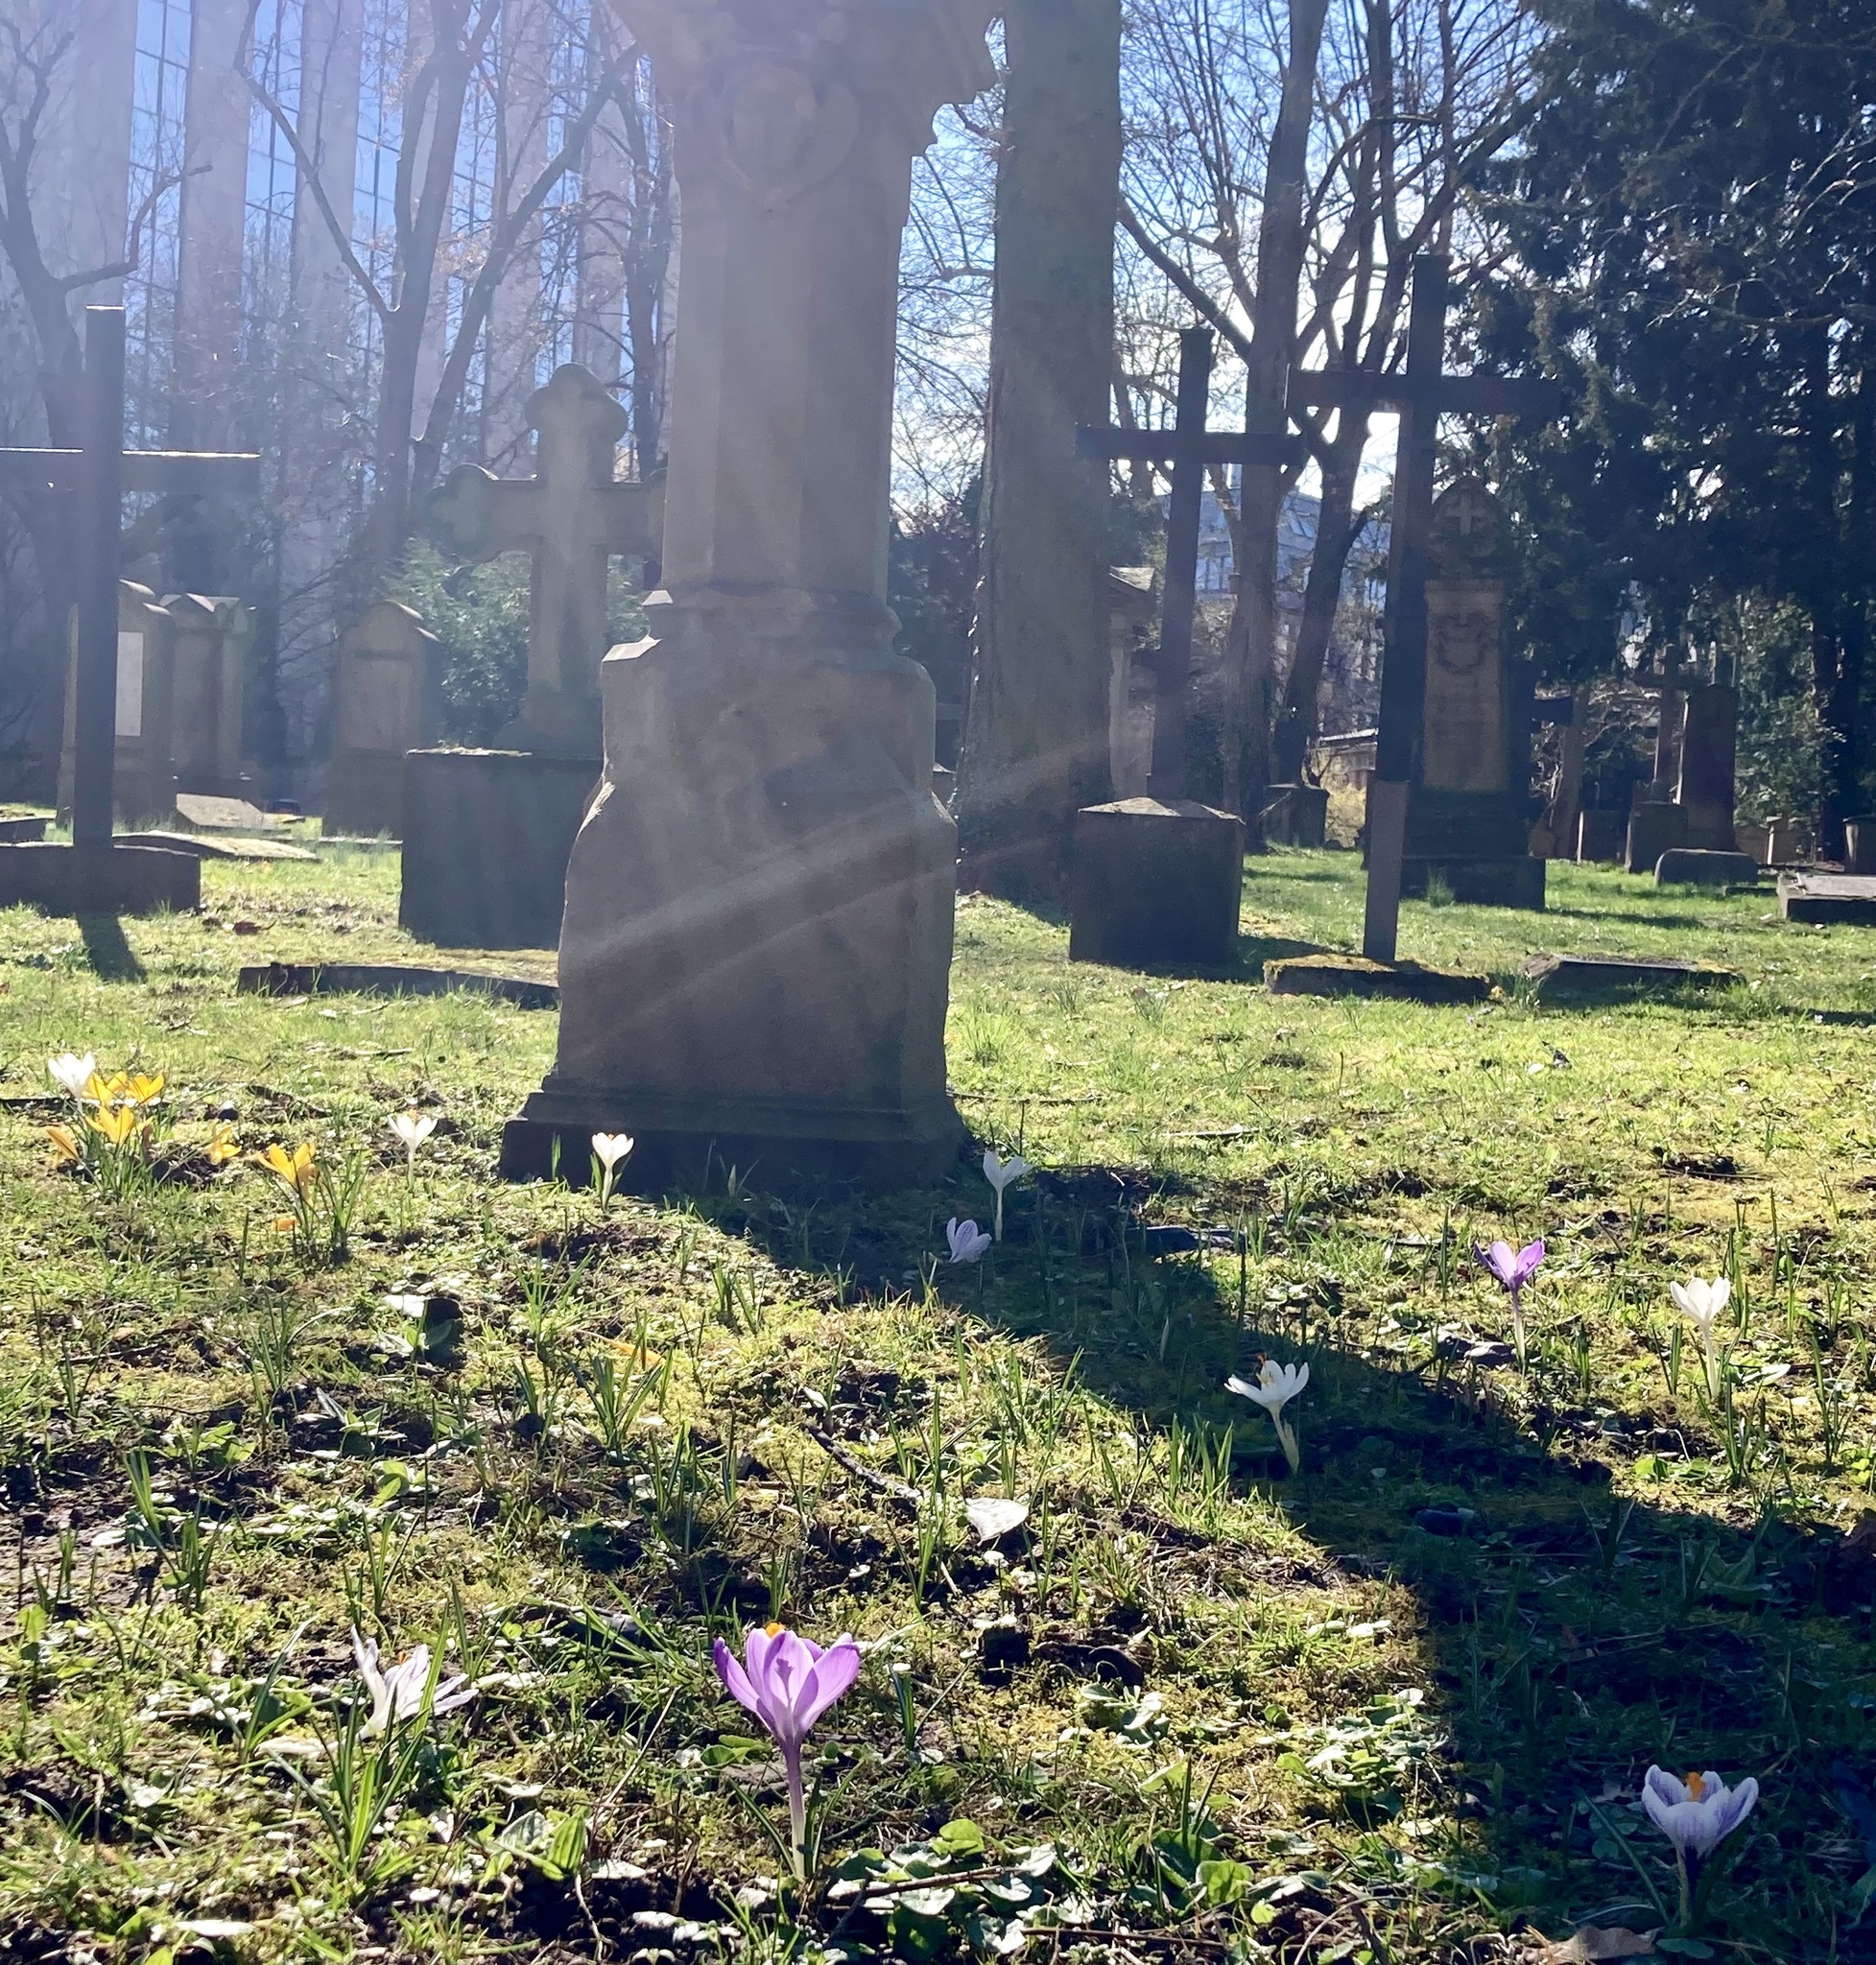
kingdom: Plantae
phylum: Tracheophyta
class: Liliopsida
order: Asparagales
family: Iridaceae
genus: Crocus
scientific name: Crocus tommasinianus
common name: Early crocus
